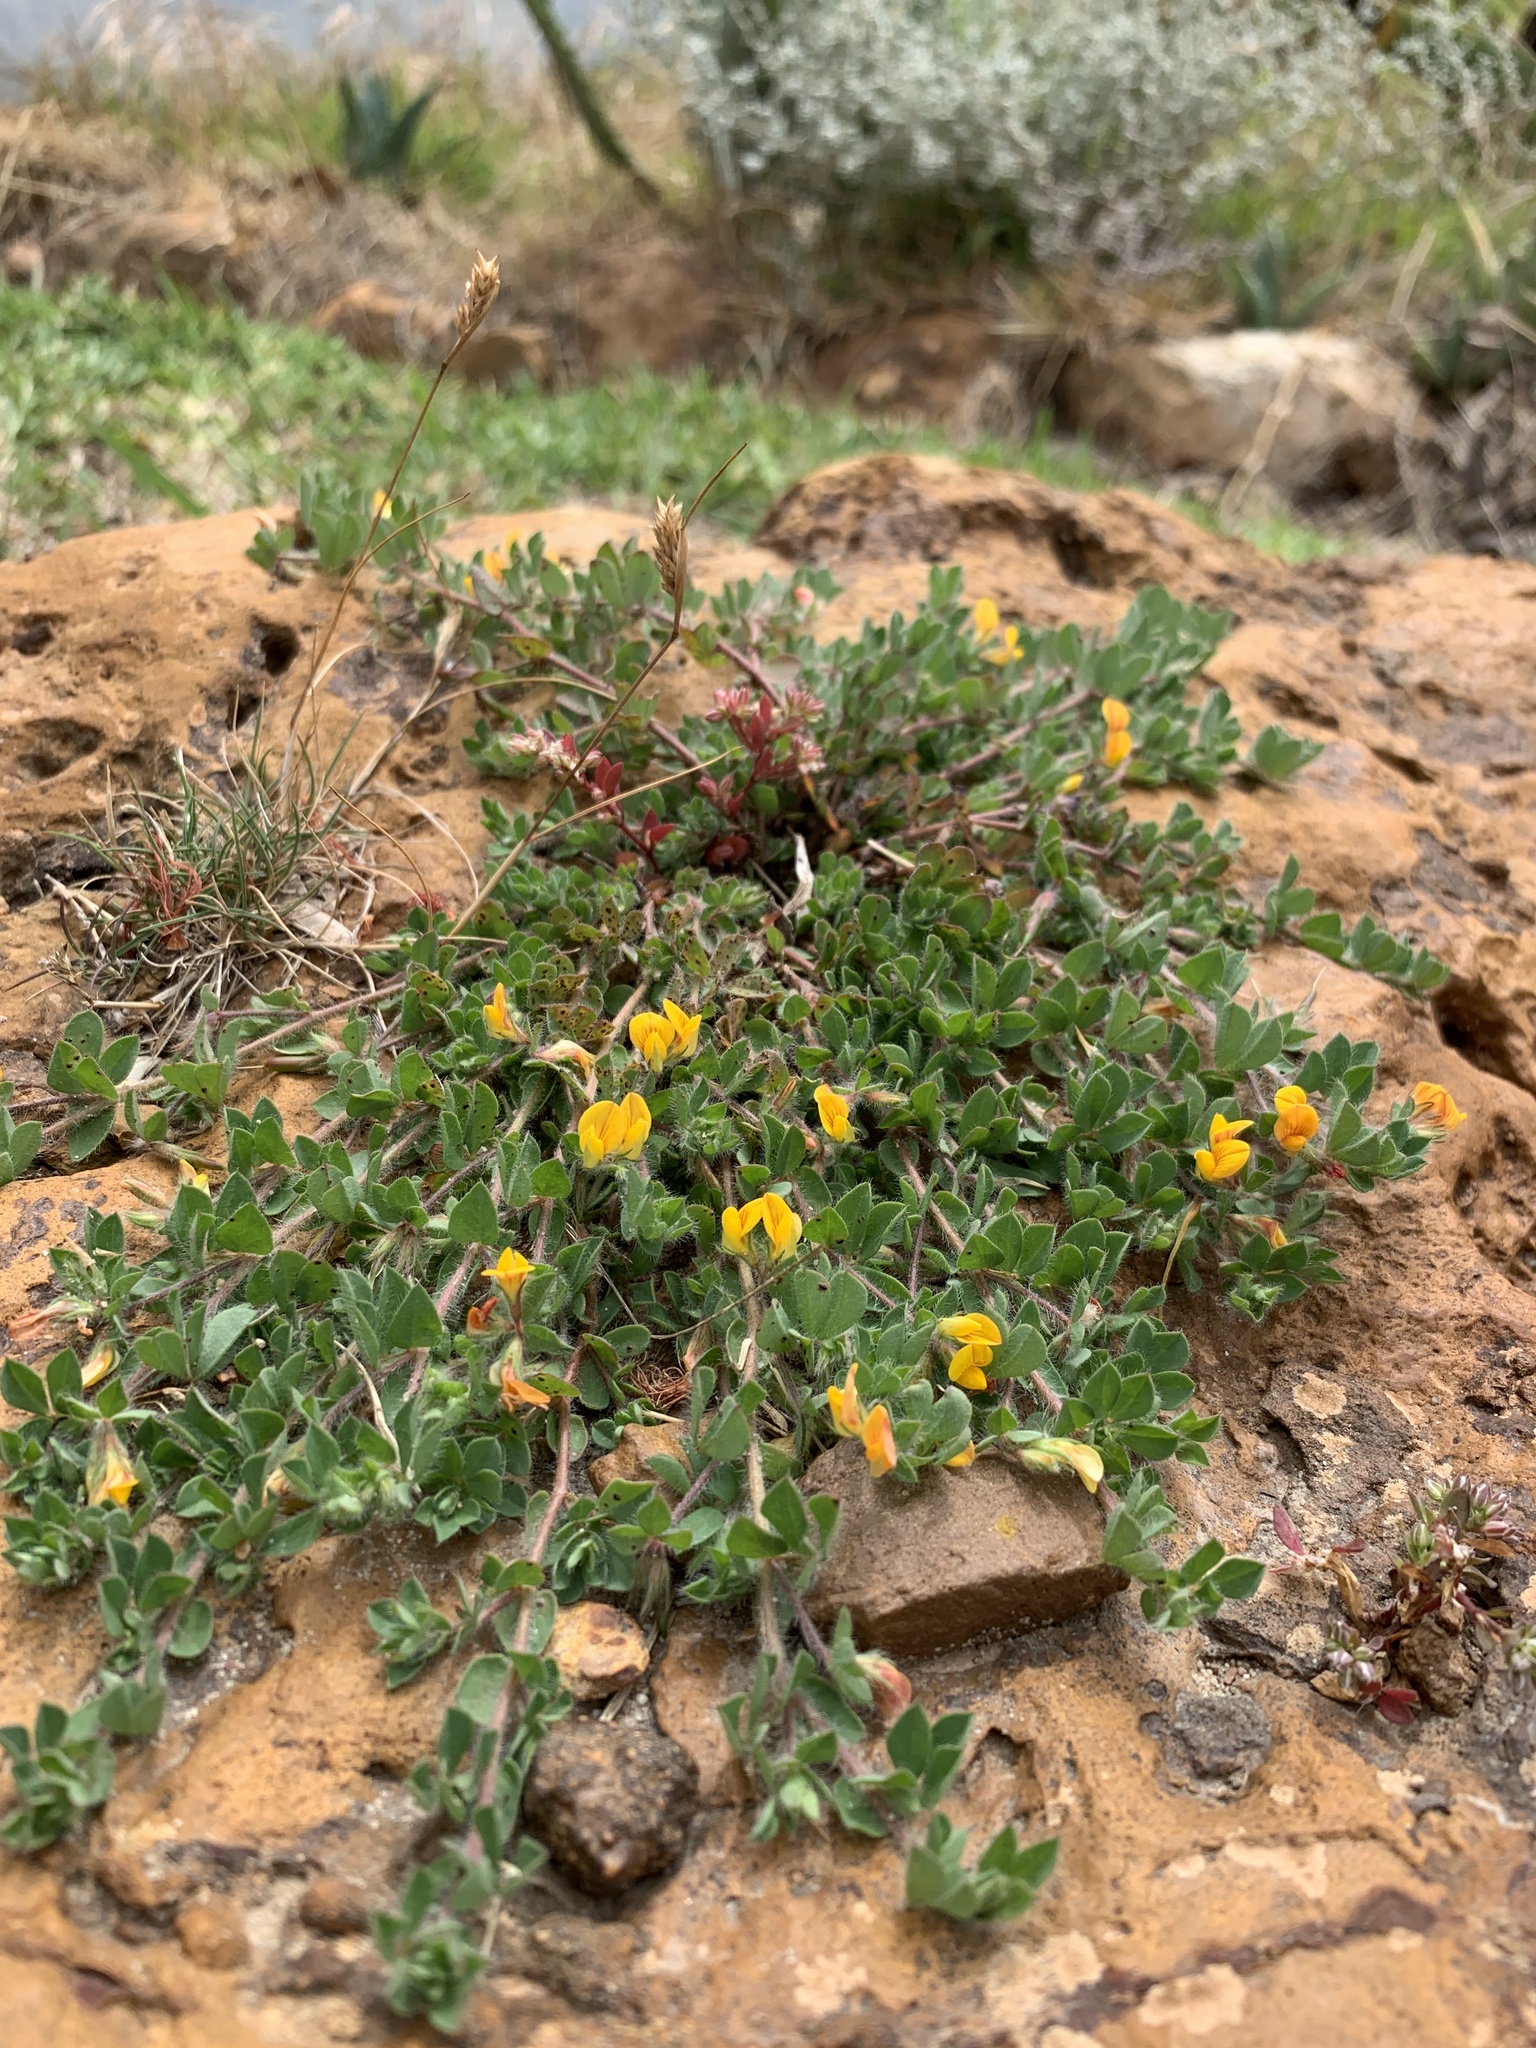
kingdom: Plantae
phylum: Tracheophyta
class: Magnoliopsida
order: Fabales
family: Fabaceae
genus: Lotus
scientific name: Lotus subbiflorus
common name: Hairy bird's-foot trefoil
